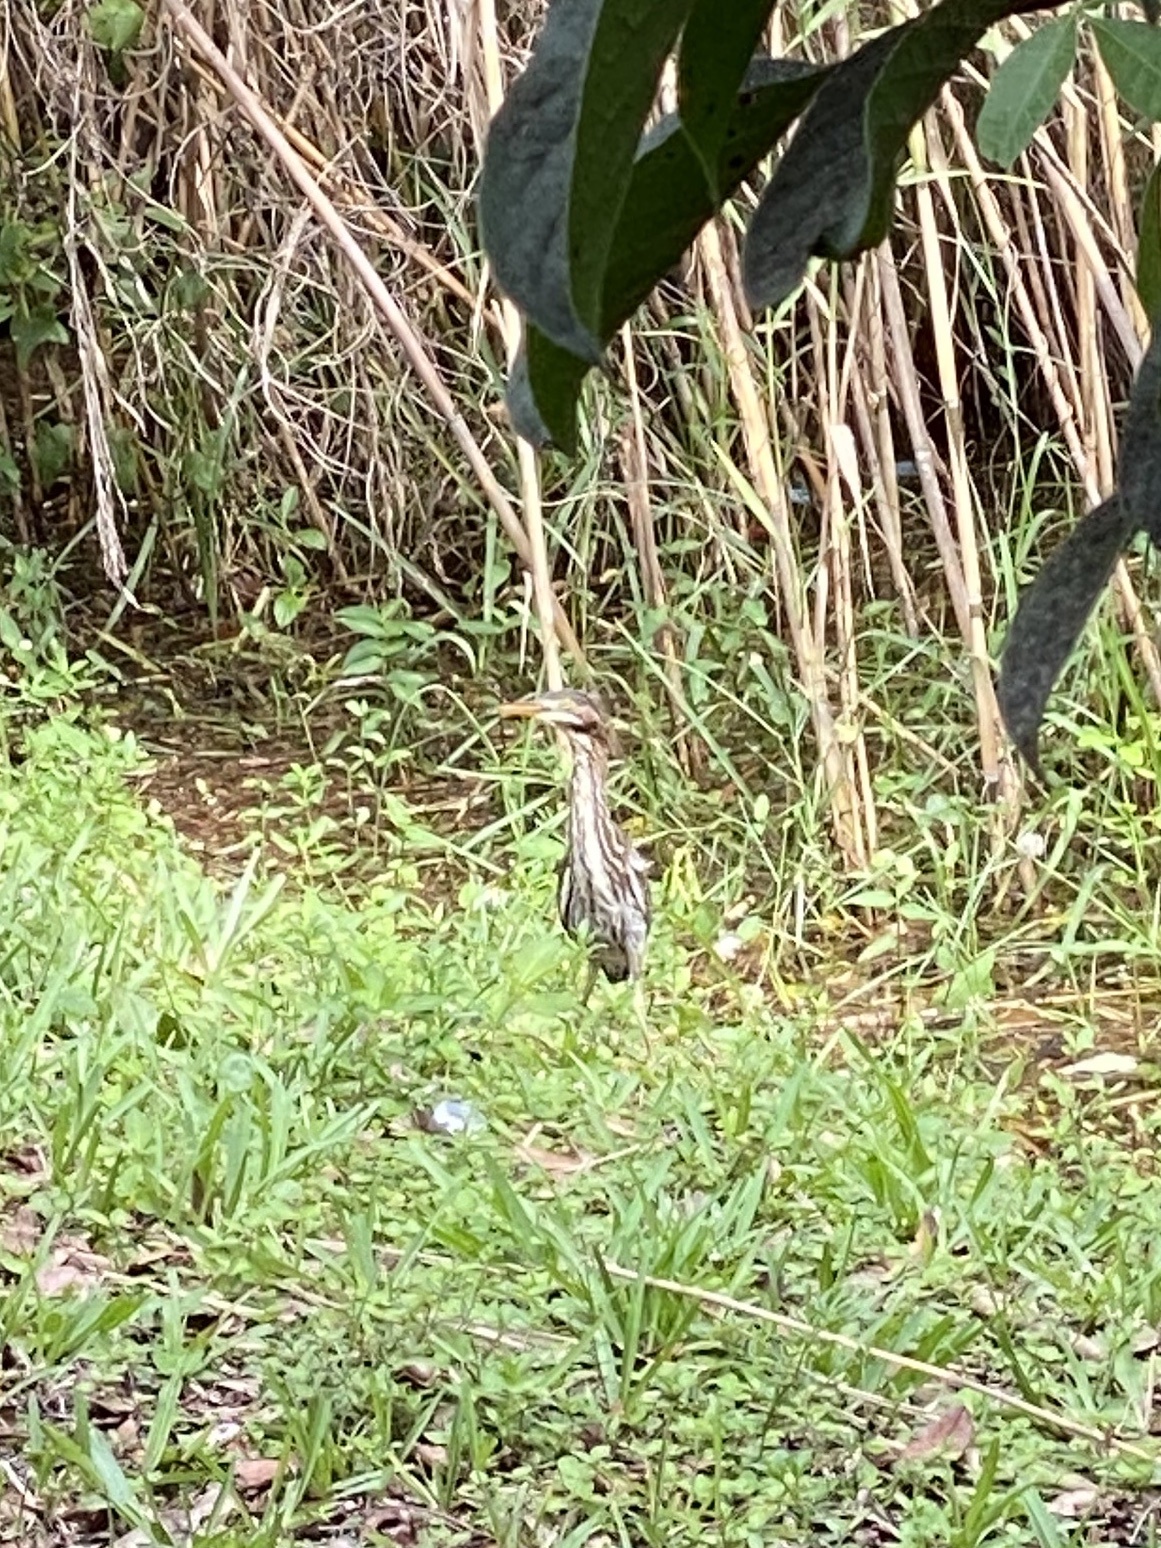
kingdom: Animalia
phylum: Chordata
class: Aves
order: Pelecaniformes
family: Ardeidae
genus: Butorides
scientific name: Butorides virescens
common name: Green heron
